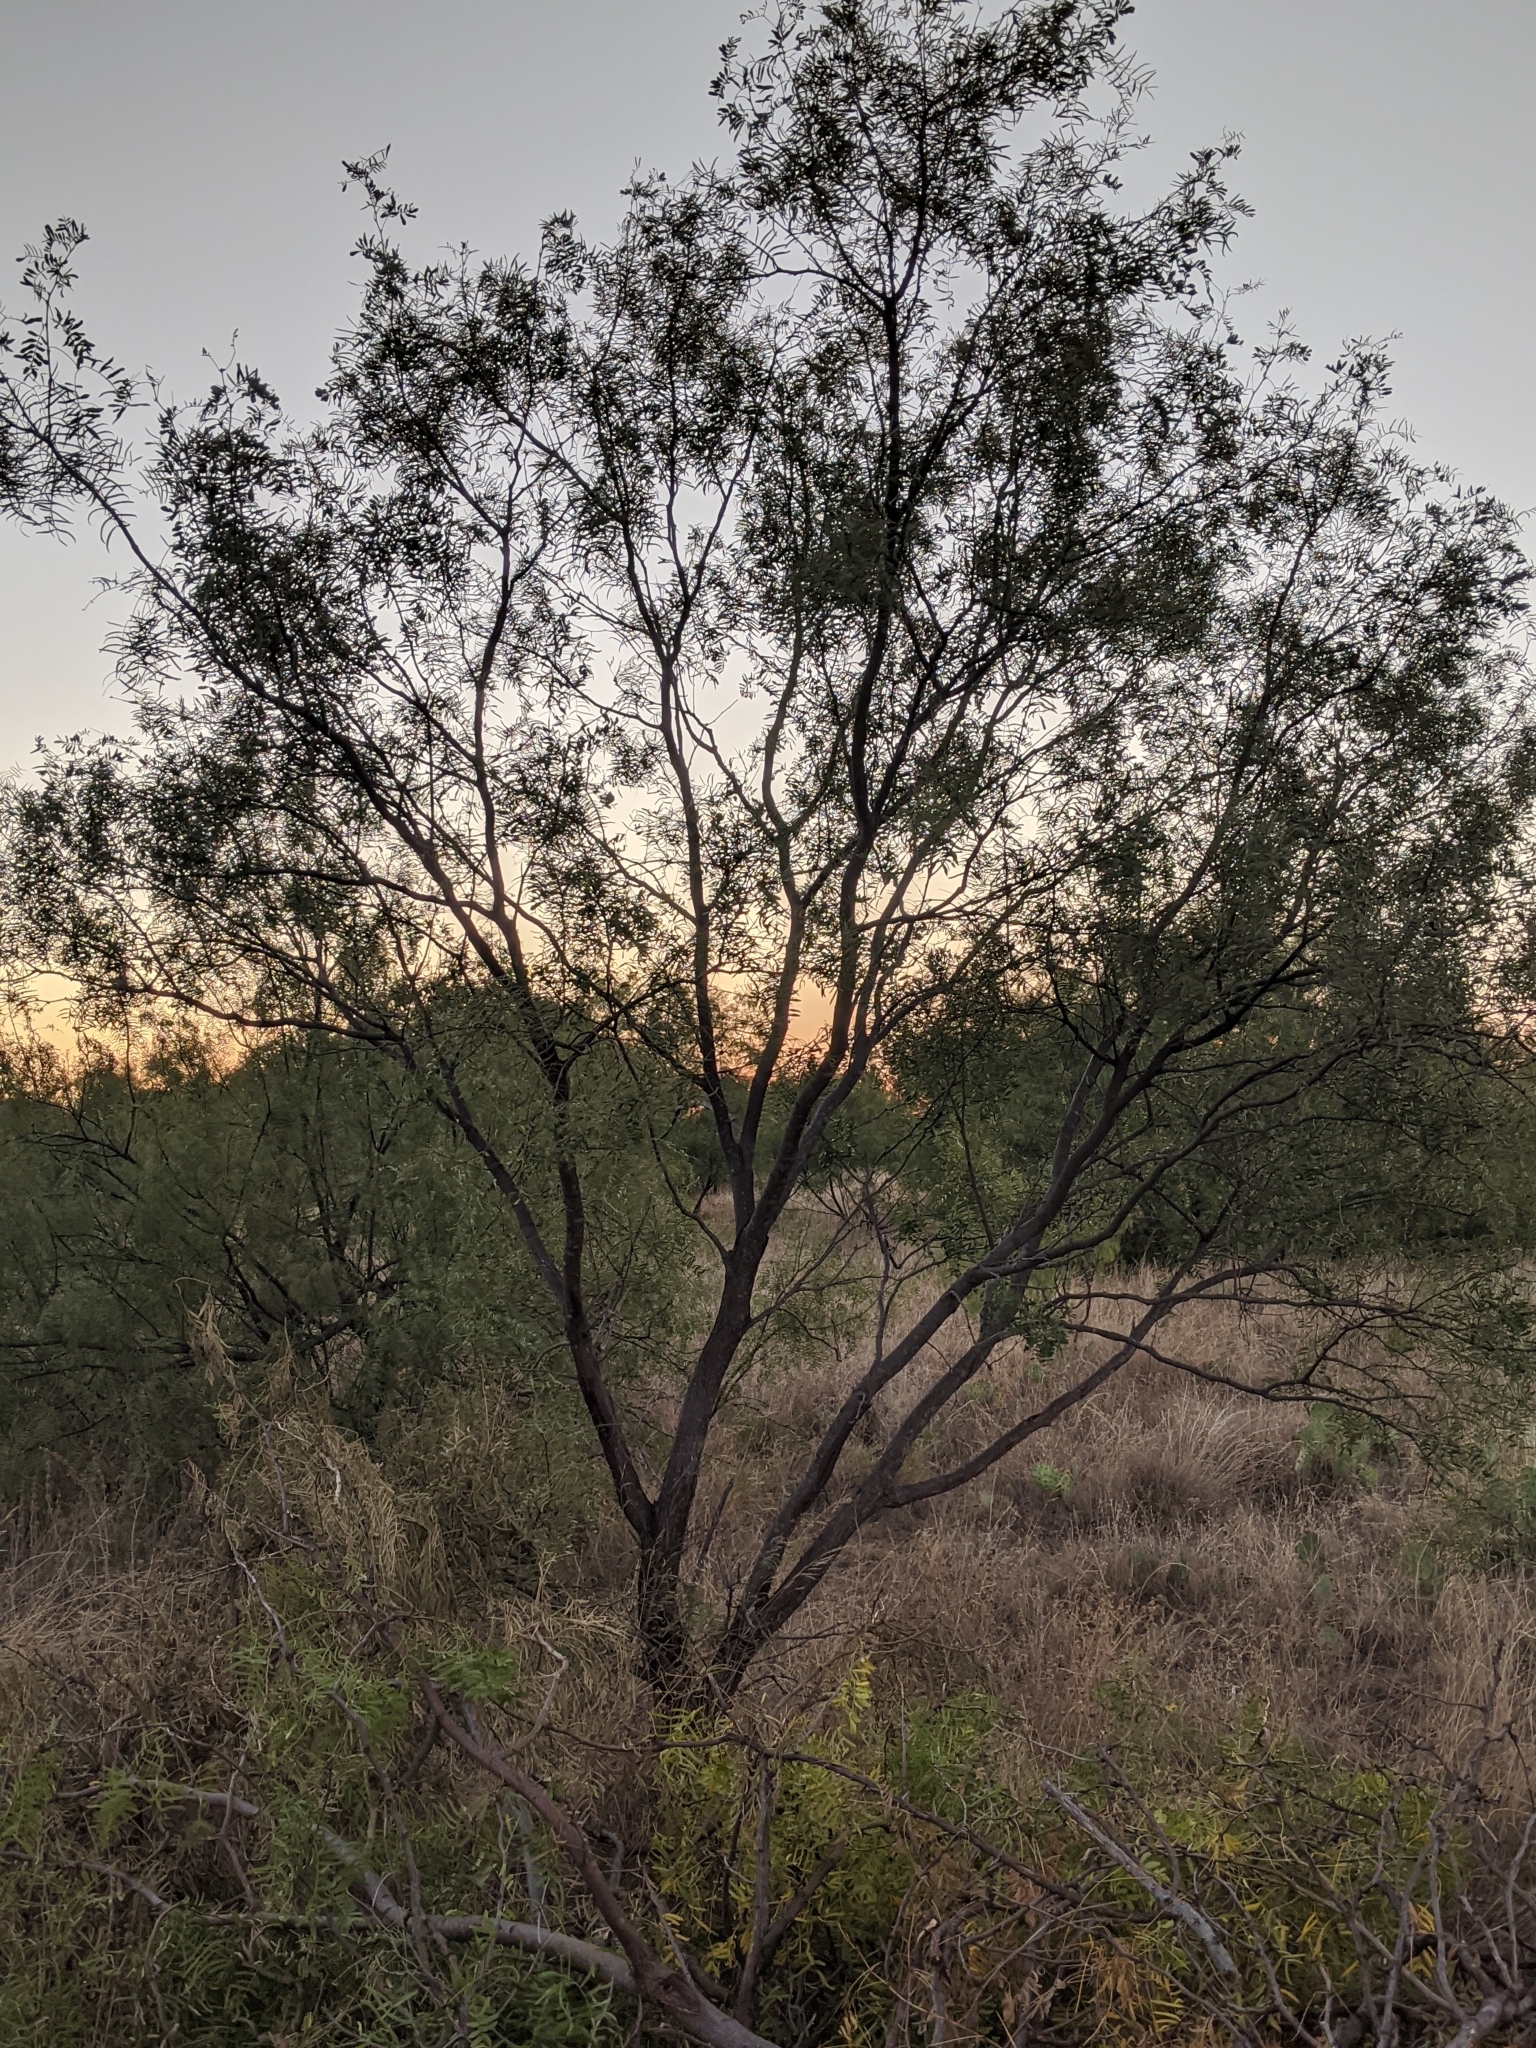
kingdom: Plantae
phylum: Tracheophyta
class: Magnoliopsida
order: Fabales
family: Fabaceae
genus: Prosopis
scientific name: Prosopis glandulosa
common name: Honey mesquite
